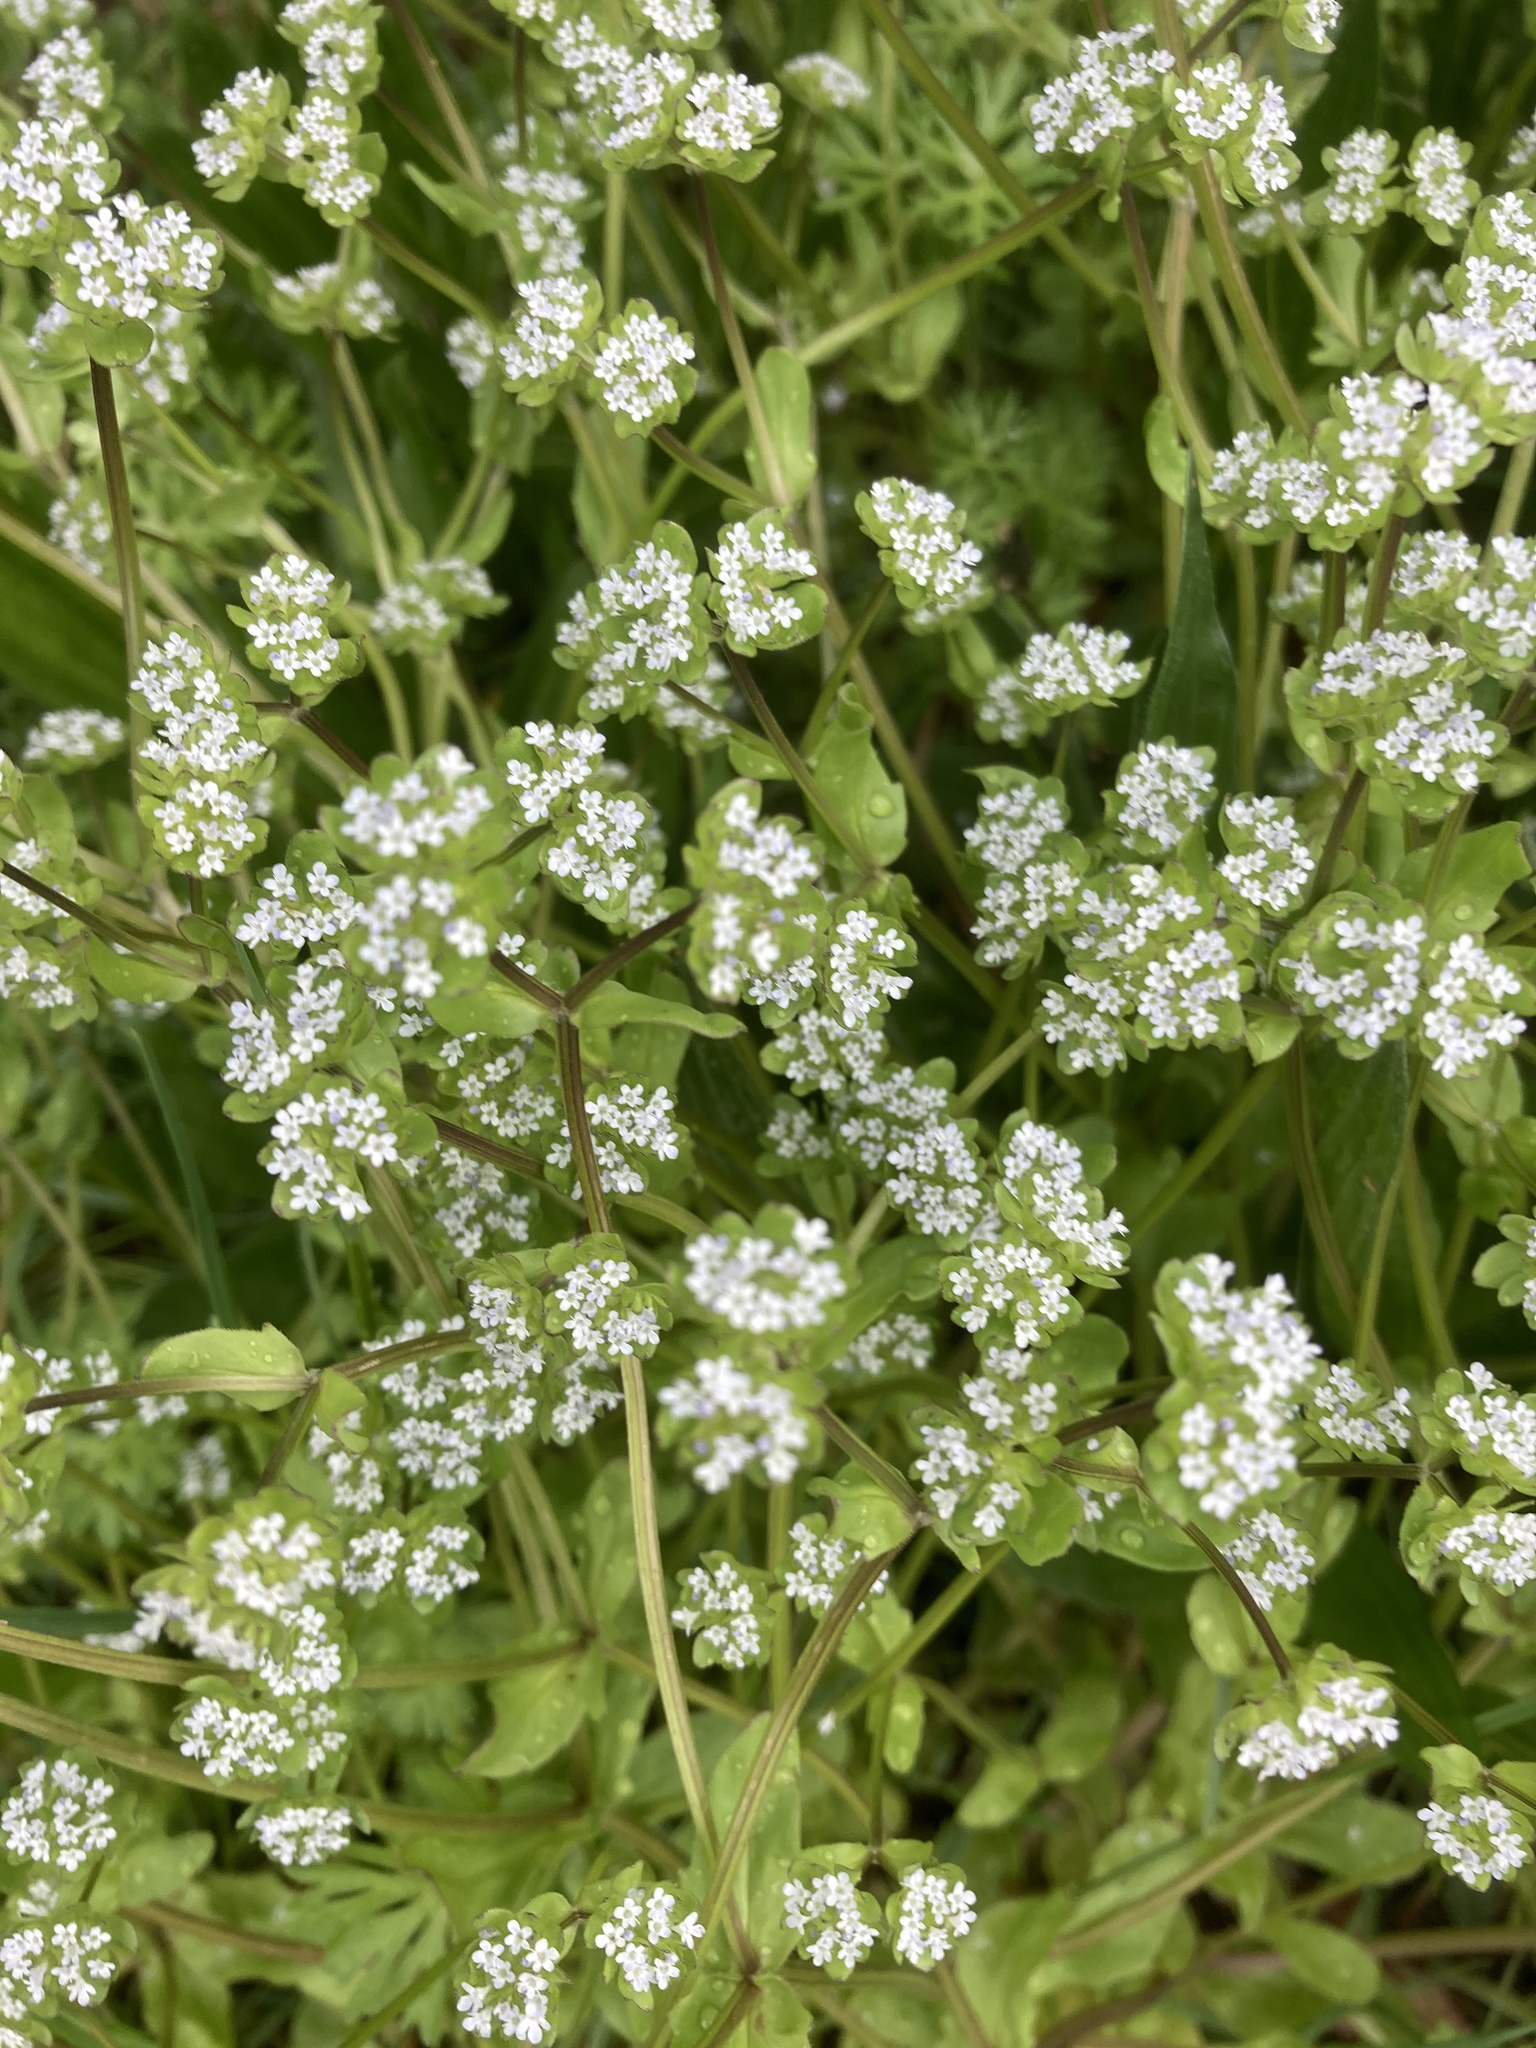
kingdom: Plantae
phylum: Tracheophyta
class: Magnoliopsida
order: Dipsacales
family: Caprifoliaceae
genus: Valerianella
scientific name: Valerianella locusta
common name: Common cornsalad
